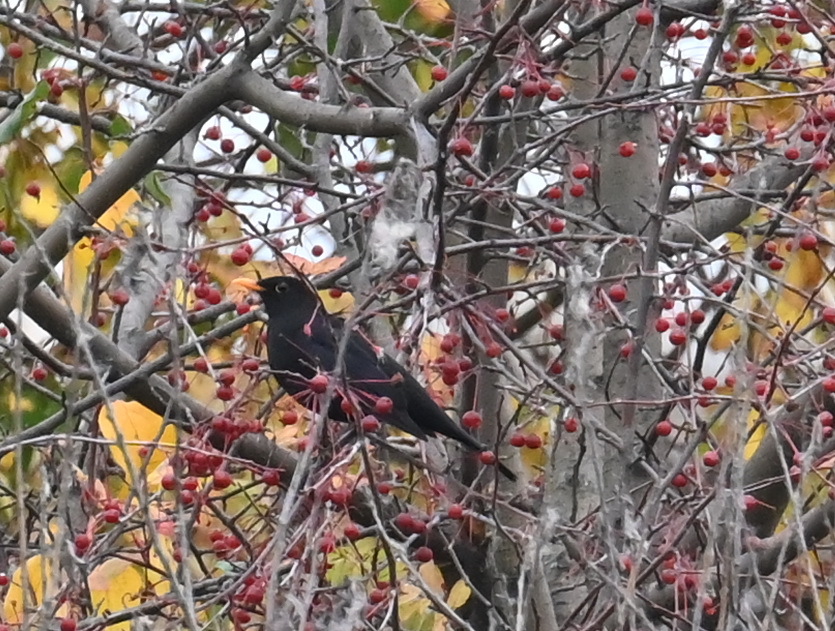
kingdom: Animalia
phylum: Chordata
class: Aves
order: Passeriformes
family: Turdidae
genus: Turdus
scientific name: Turdus merula
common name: Common blackbird
